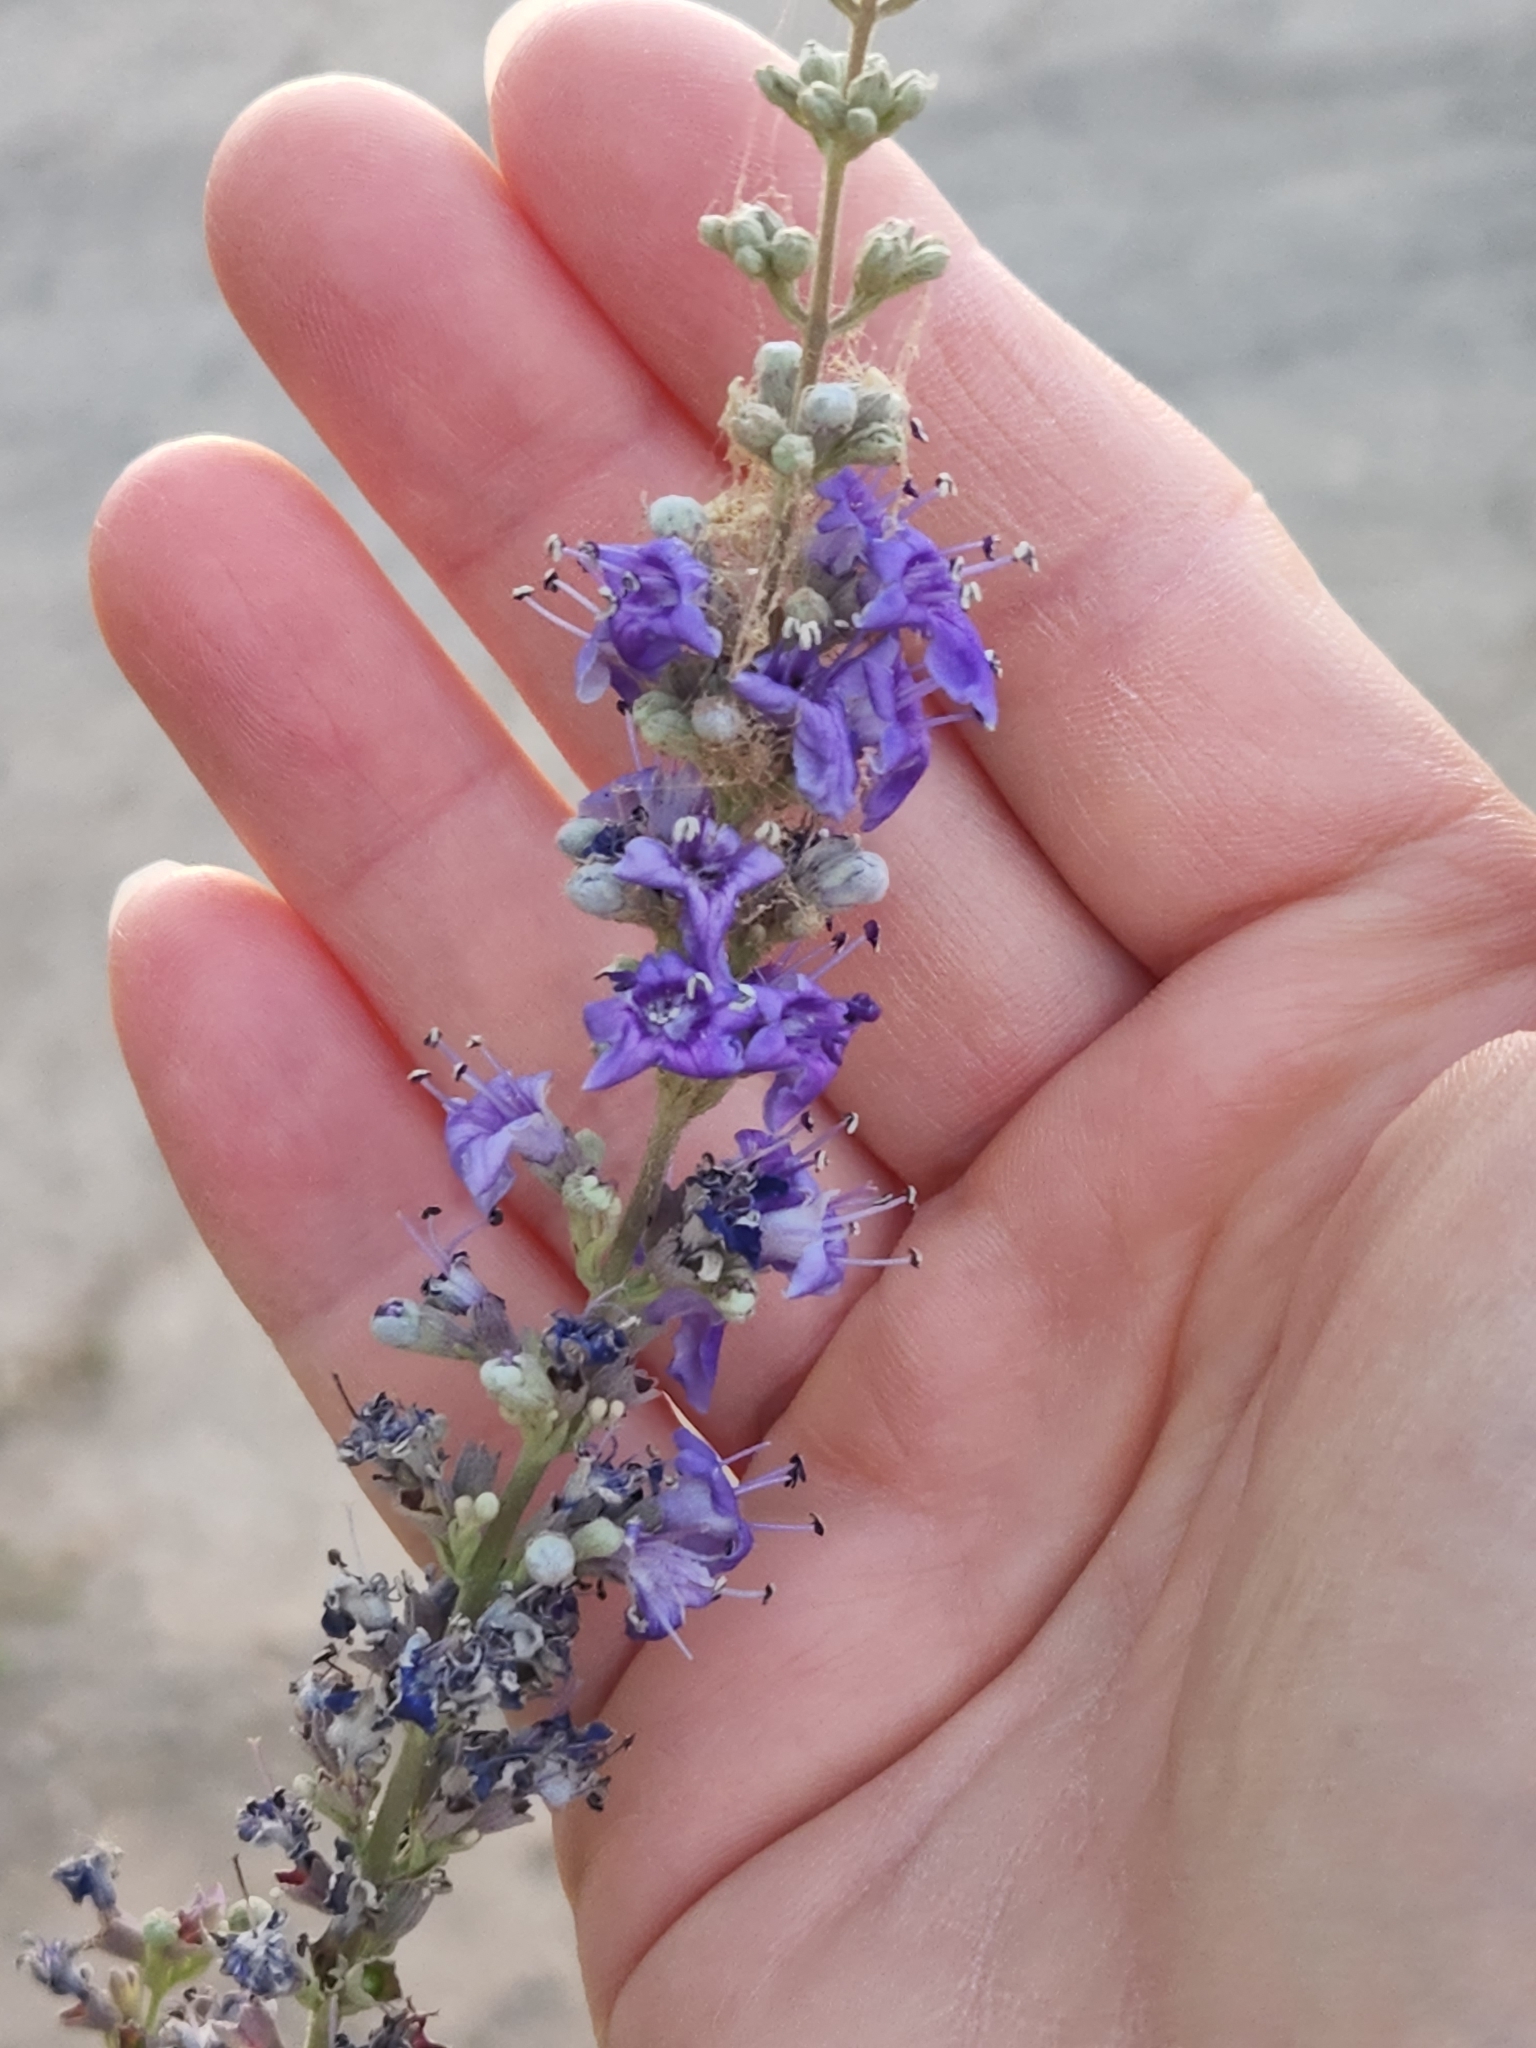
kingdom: Plantae
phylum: Tracheophyta
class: Magnoliopsida
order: Lamiales
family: Lamiaceae
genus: Vitex
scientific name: Vitex agnus-castus
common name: Chasteberry
